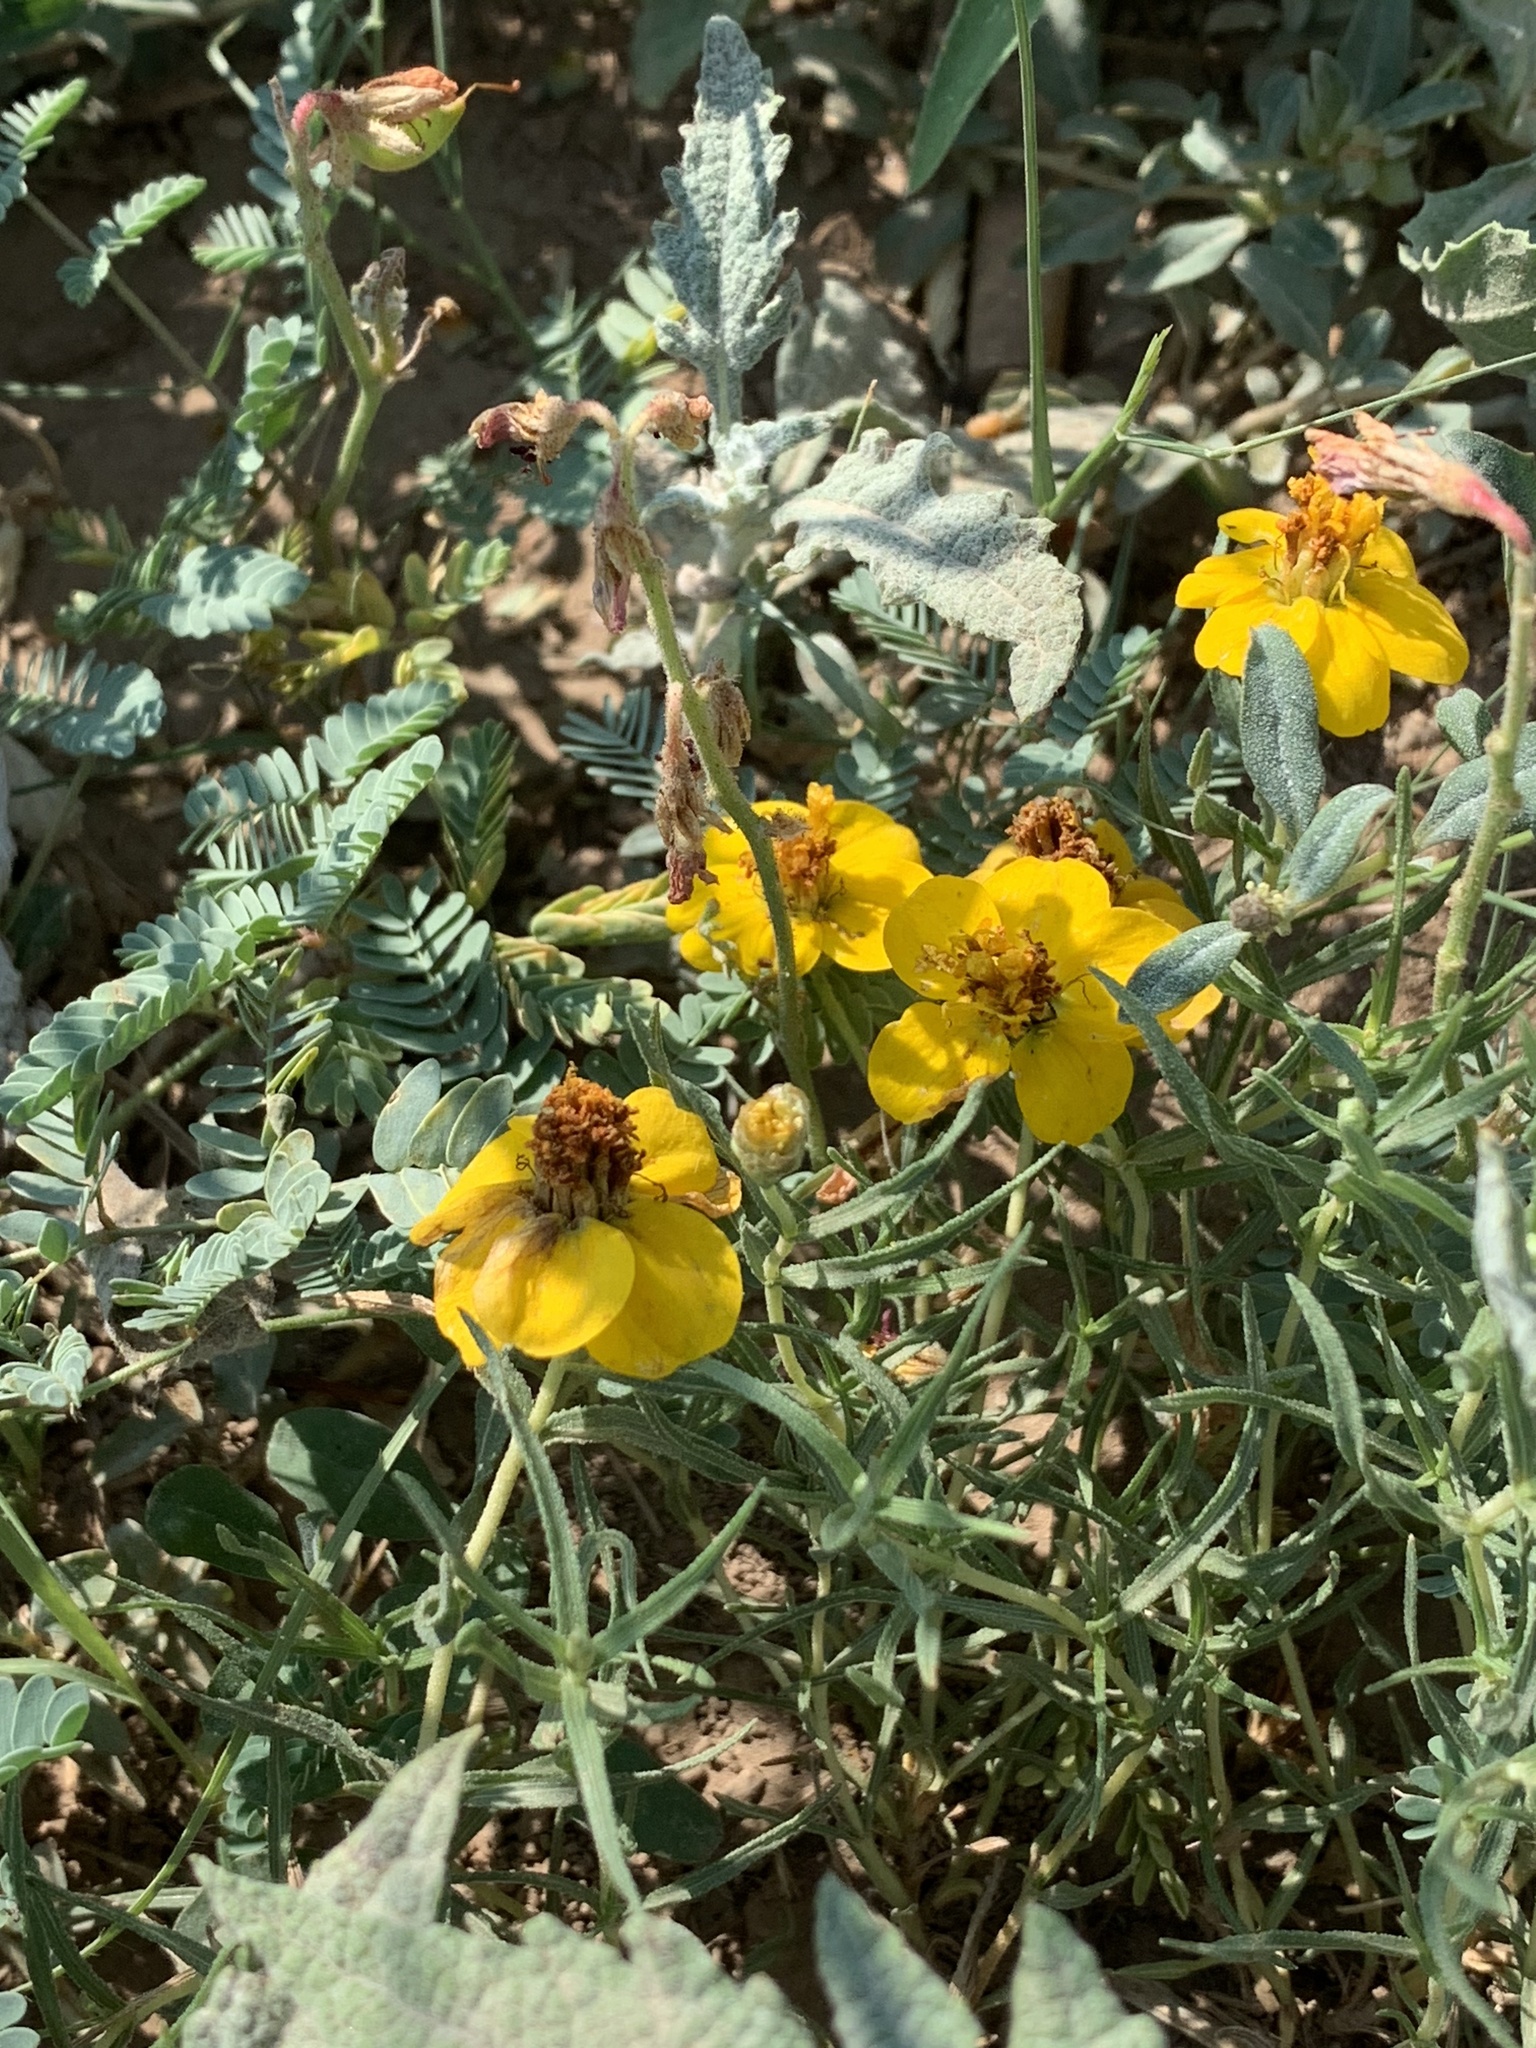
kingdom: Plantae
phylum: Tracheophyta
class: Magnoliopsida
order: Asterales
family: Asteraceae
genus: Zinnia
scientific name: Zinnia grandiflora
